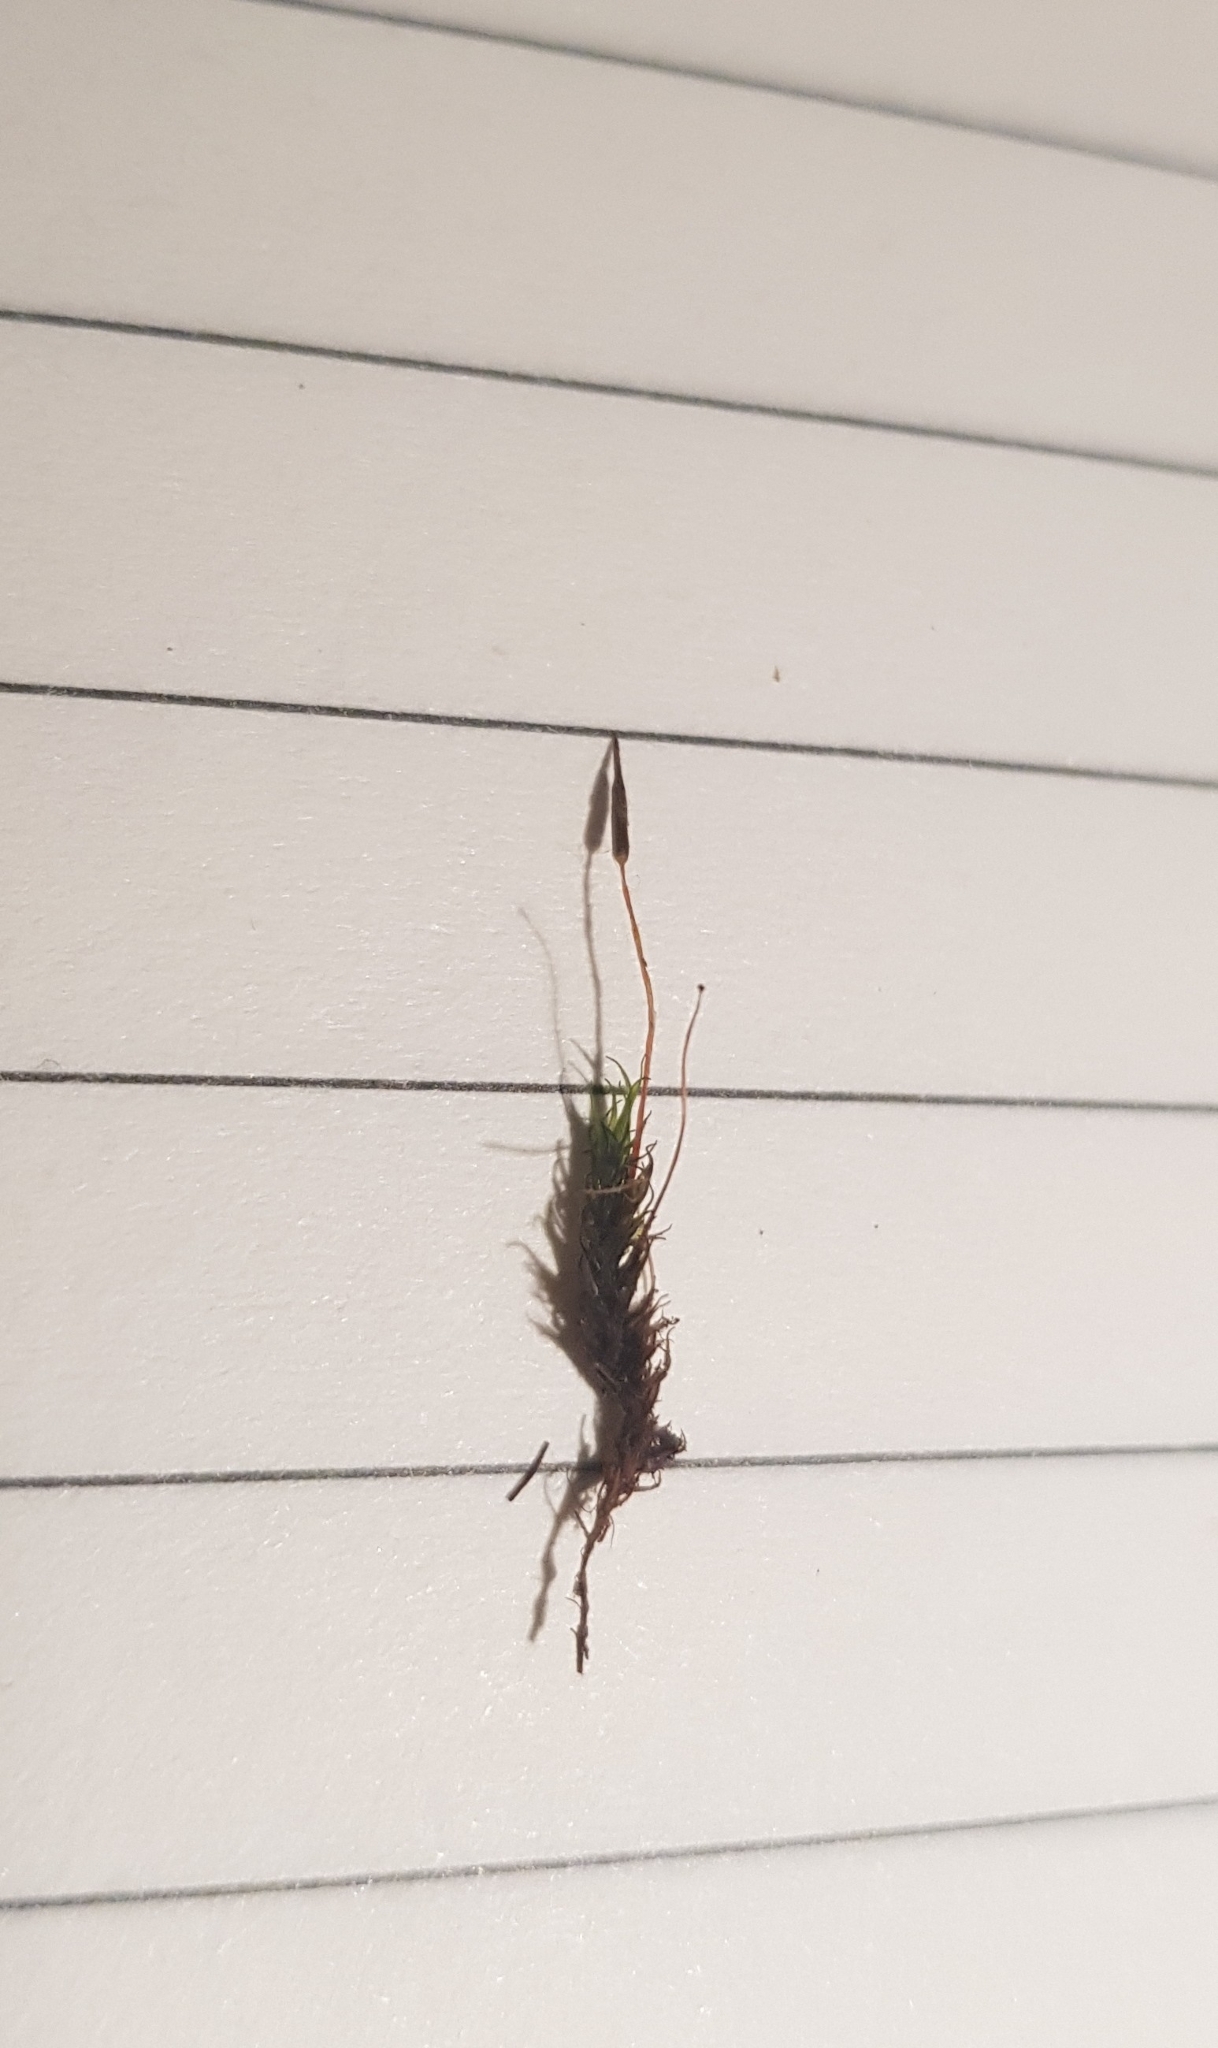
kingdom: Plantae
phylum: Bryophyta
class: Bryopsida
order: Pottiales
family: Pottiaceae
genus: Didymodon
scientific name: Didymodon rigidulus
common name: Rigid beard-moss
